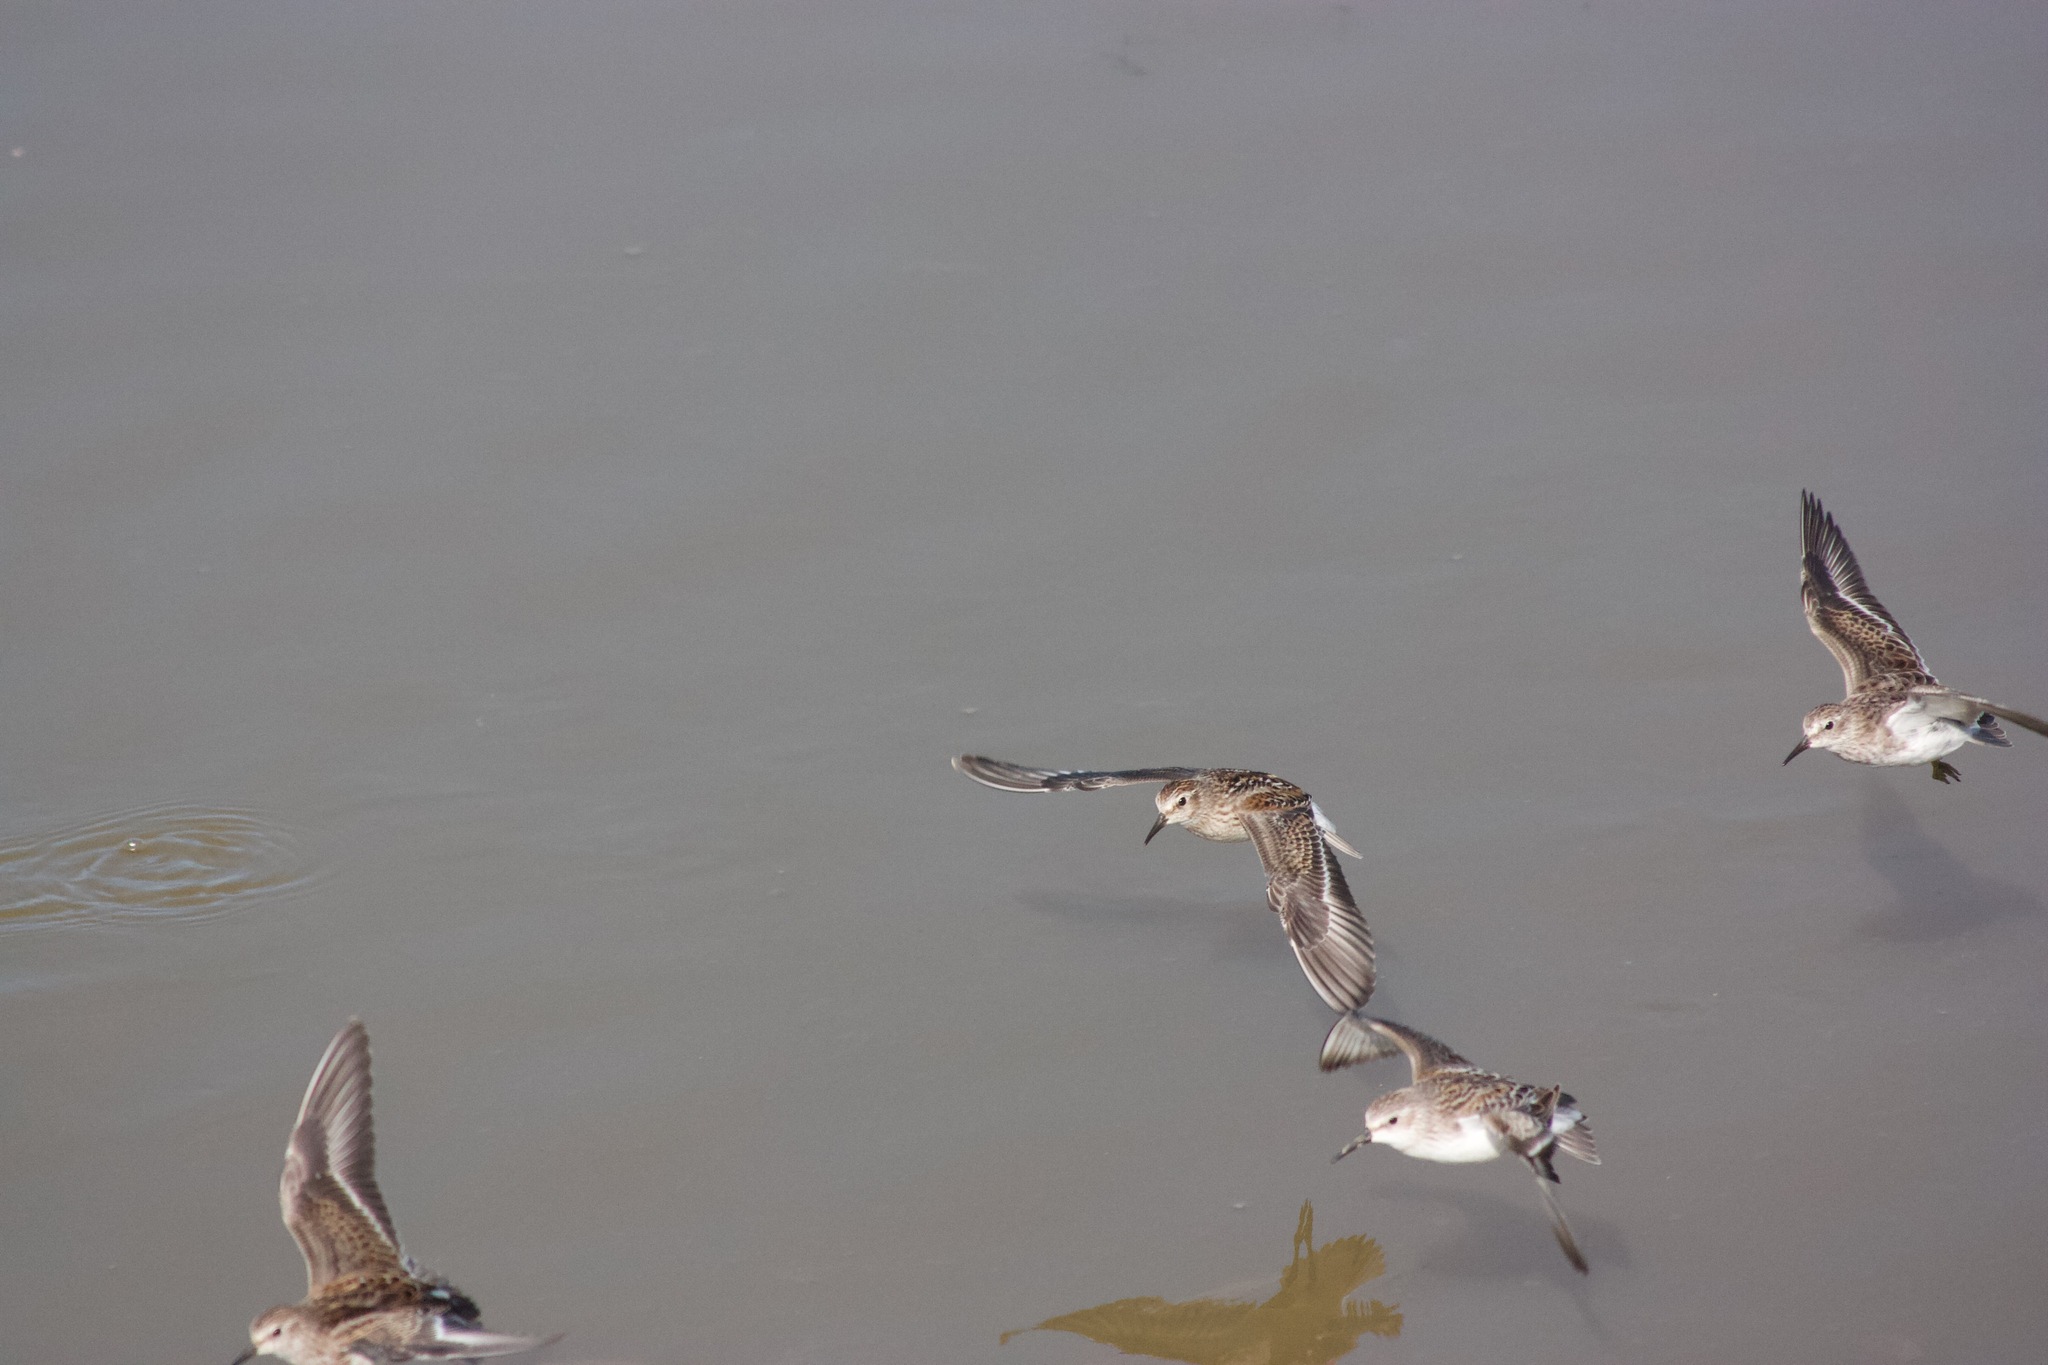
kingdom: Animalia
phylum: Chordata
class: Aves
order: Charadriiformes
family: Scolopacidae
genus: Calidris
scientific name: Calidris mauri
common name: Western sandpiper
